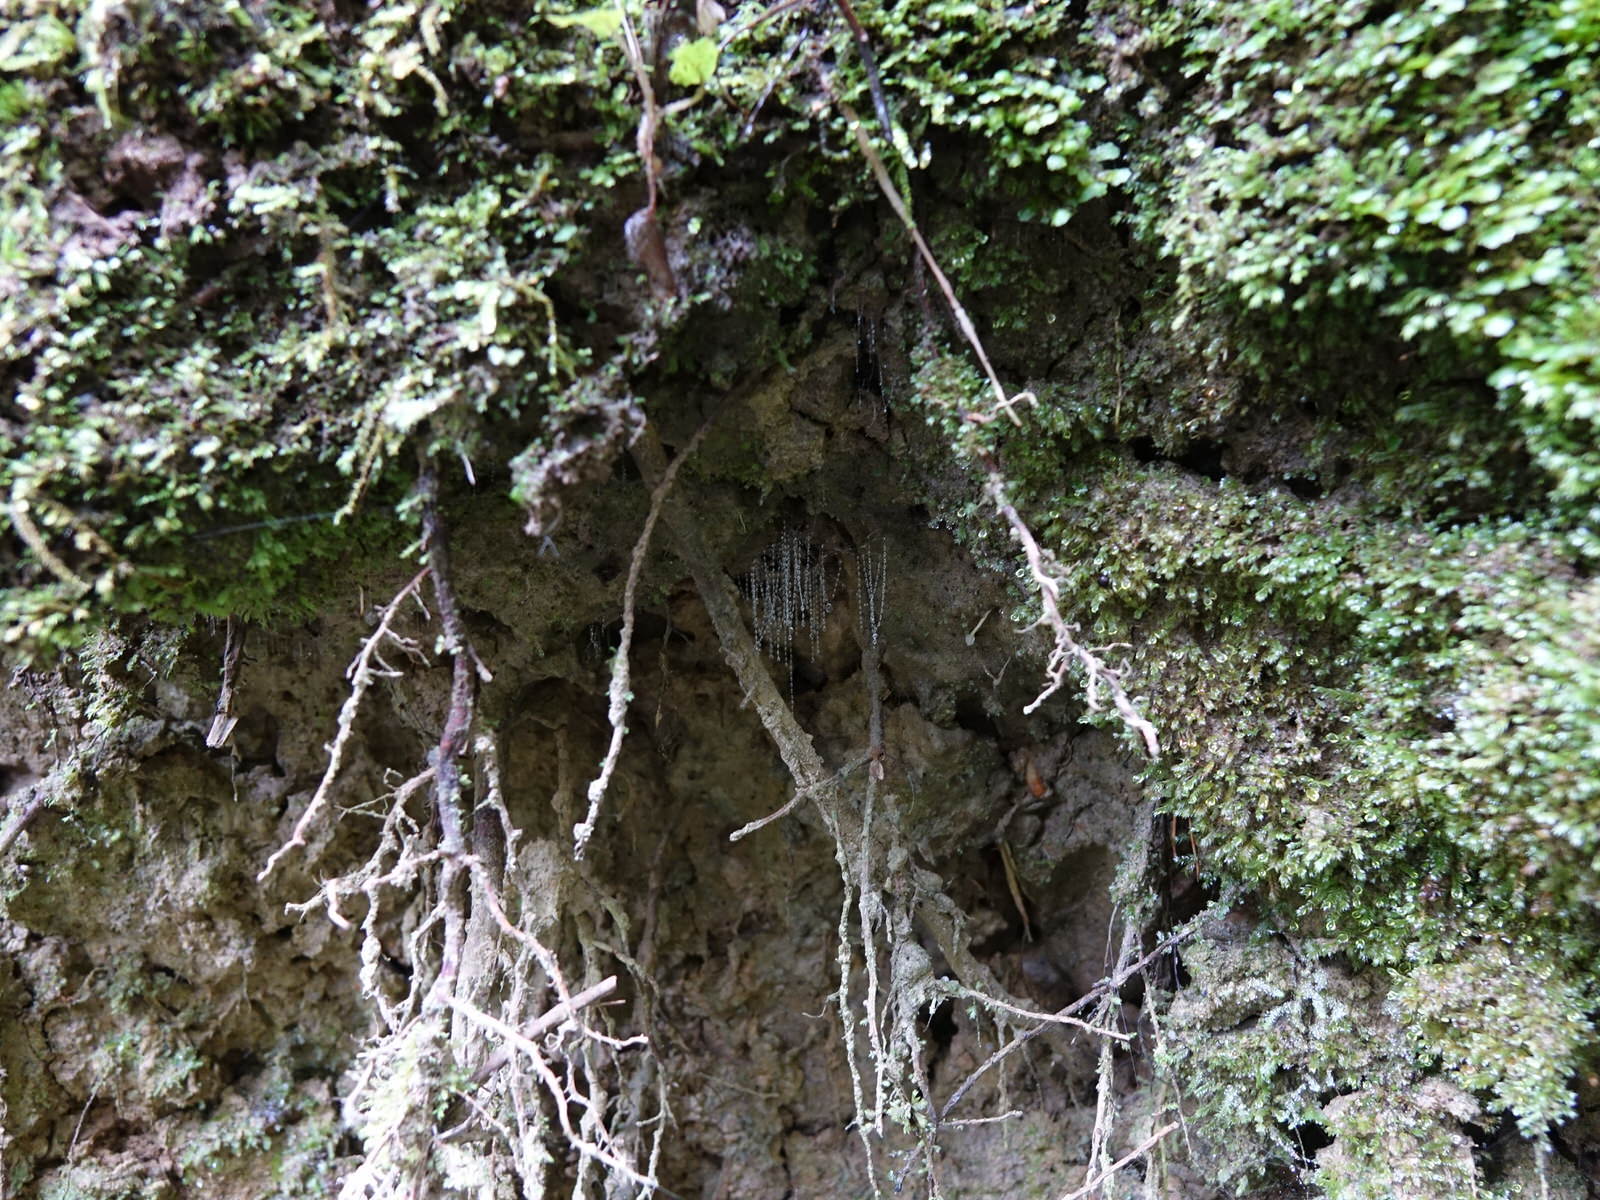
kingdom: Animalia
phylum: Arthropoda
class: Insecta
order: Diptera
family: Keroplatidae
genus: Arachnocampa
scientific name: Arachnocampa luminosa
